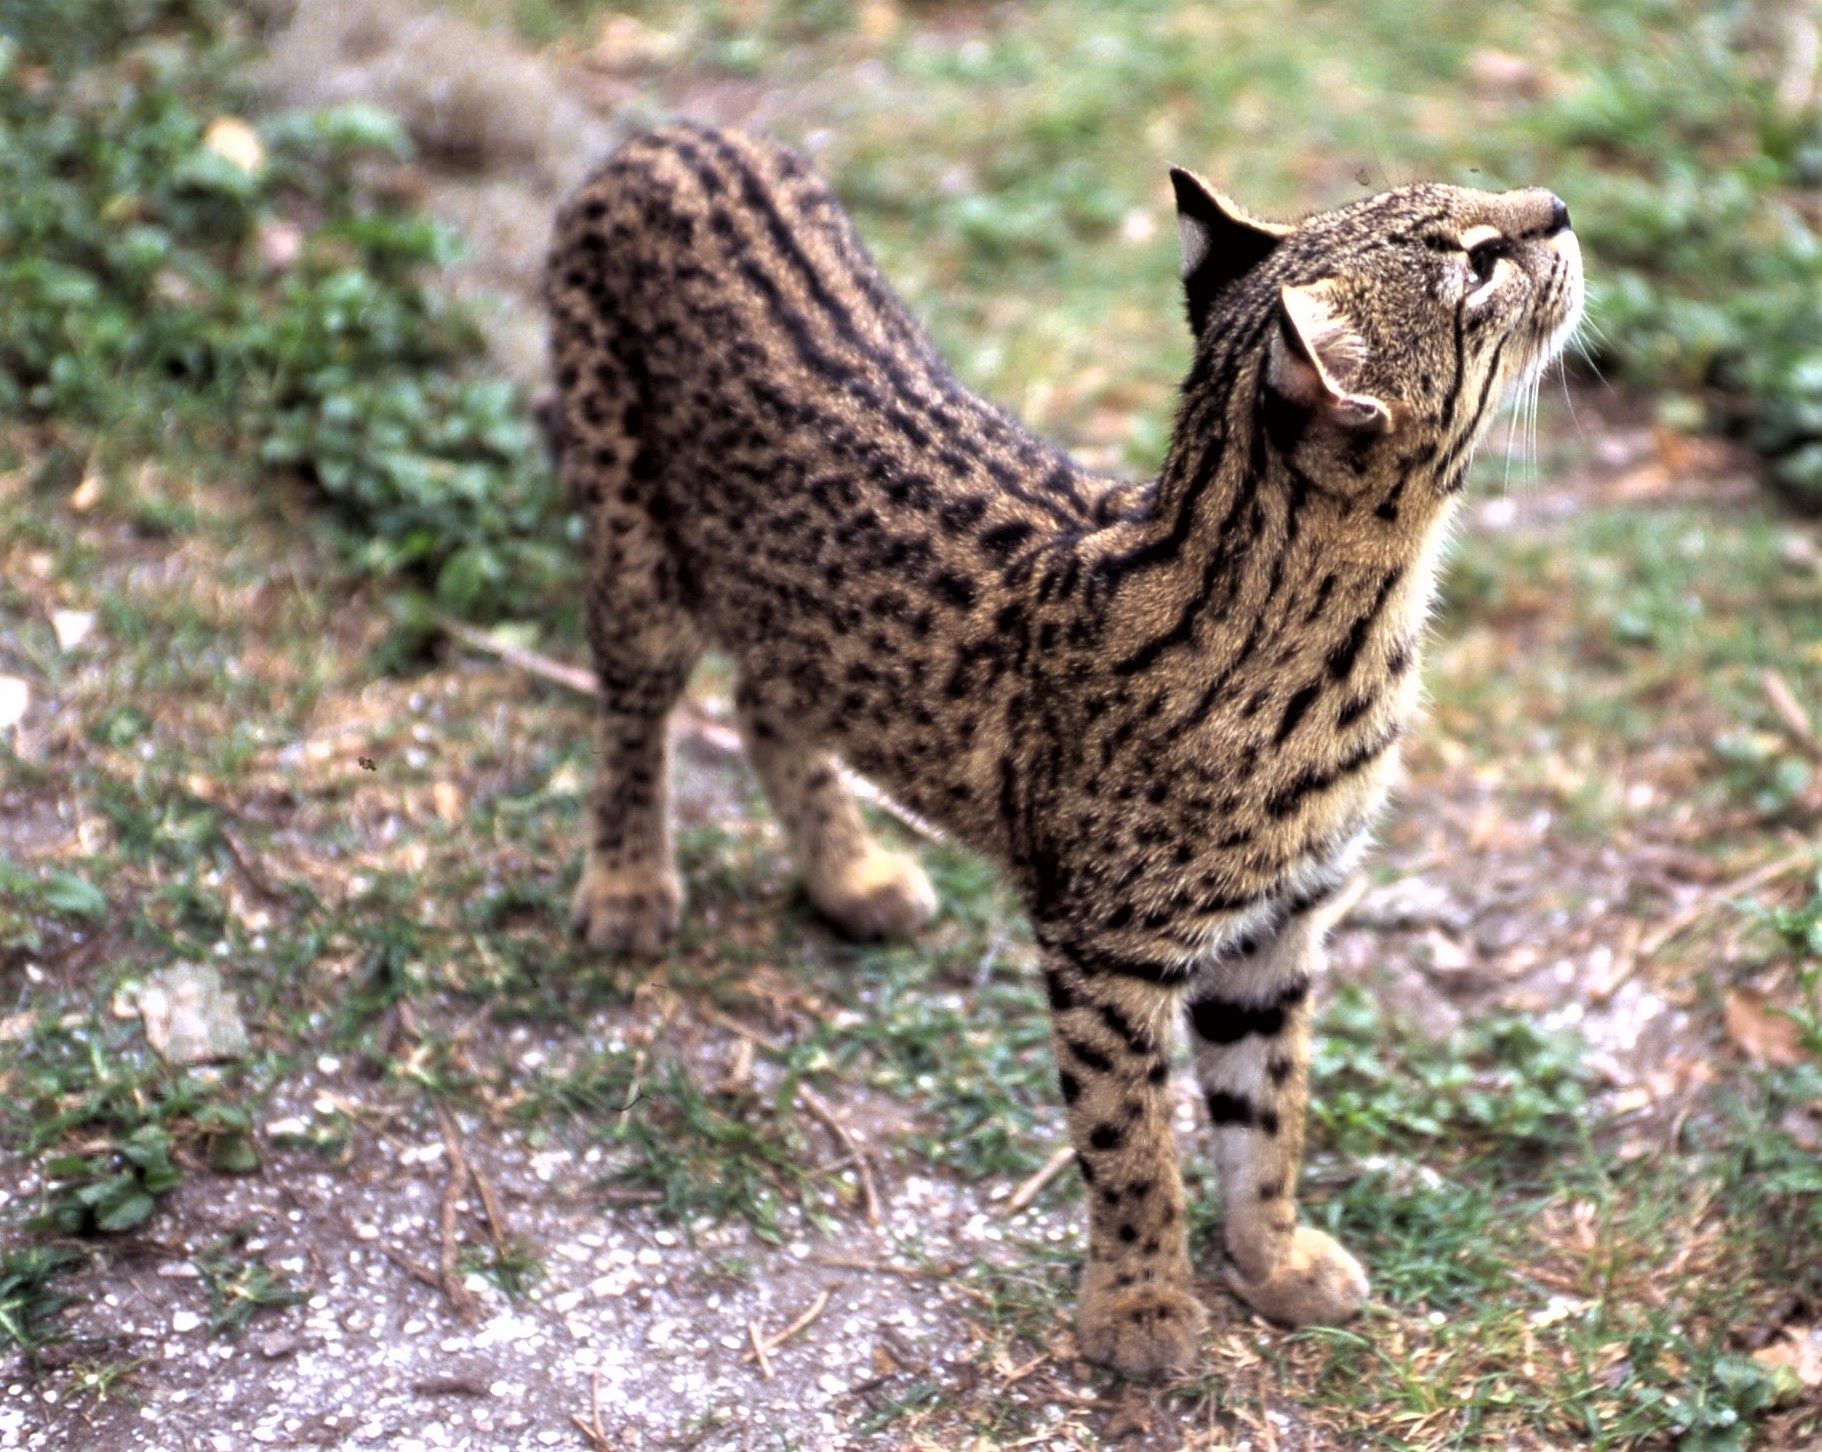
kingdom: Animalia
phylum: Chordata
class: Mammalia
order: Carnivora
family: Felidae
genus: Leopardus
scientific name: Leopardus geoffroyi
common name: Geoffroy's cat
